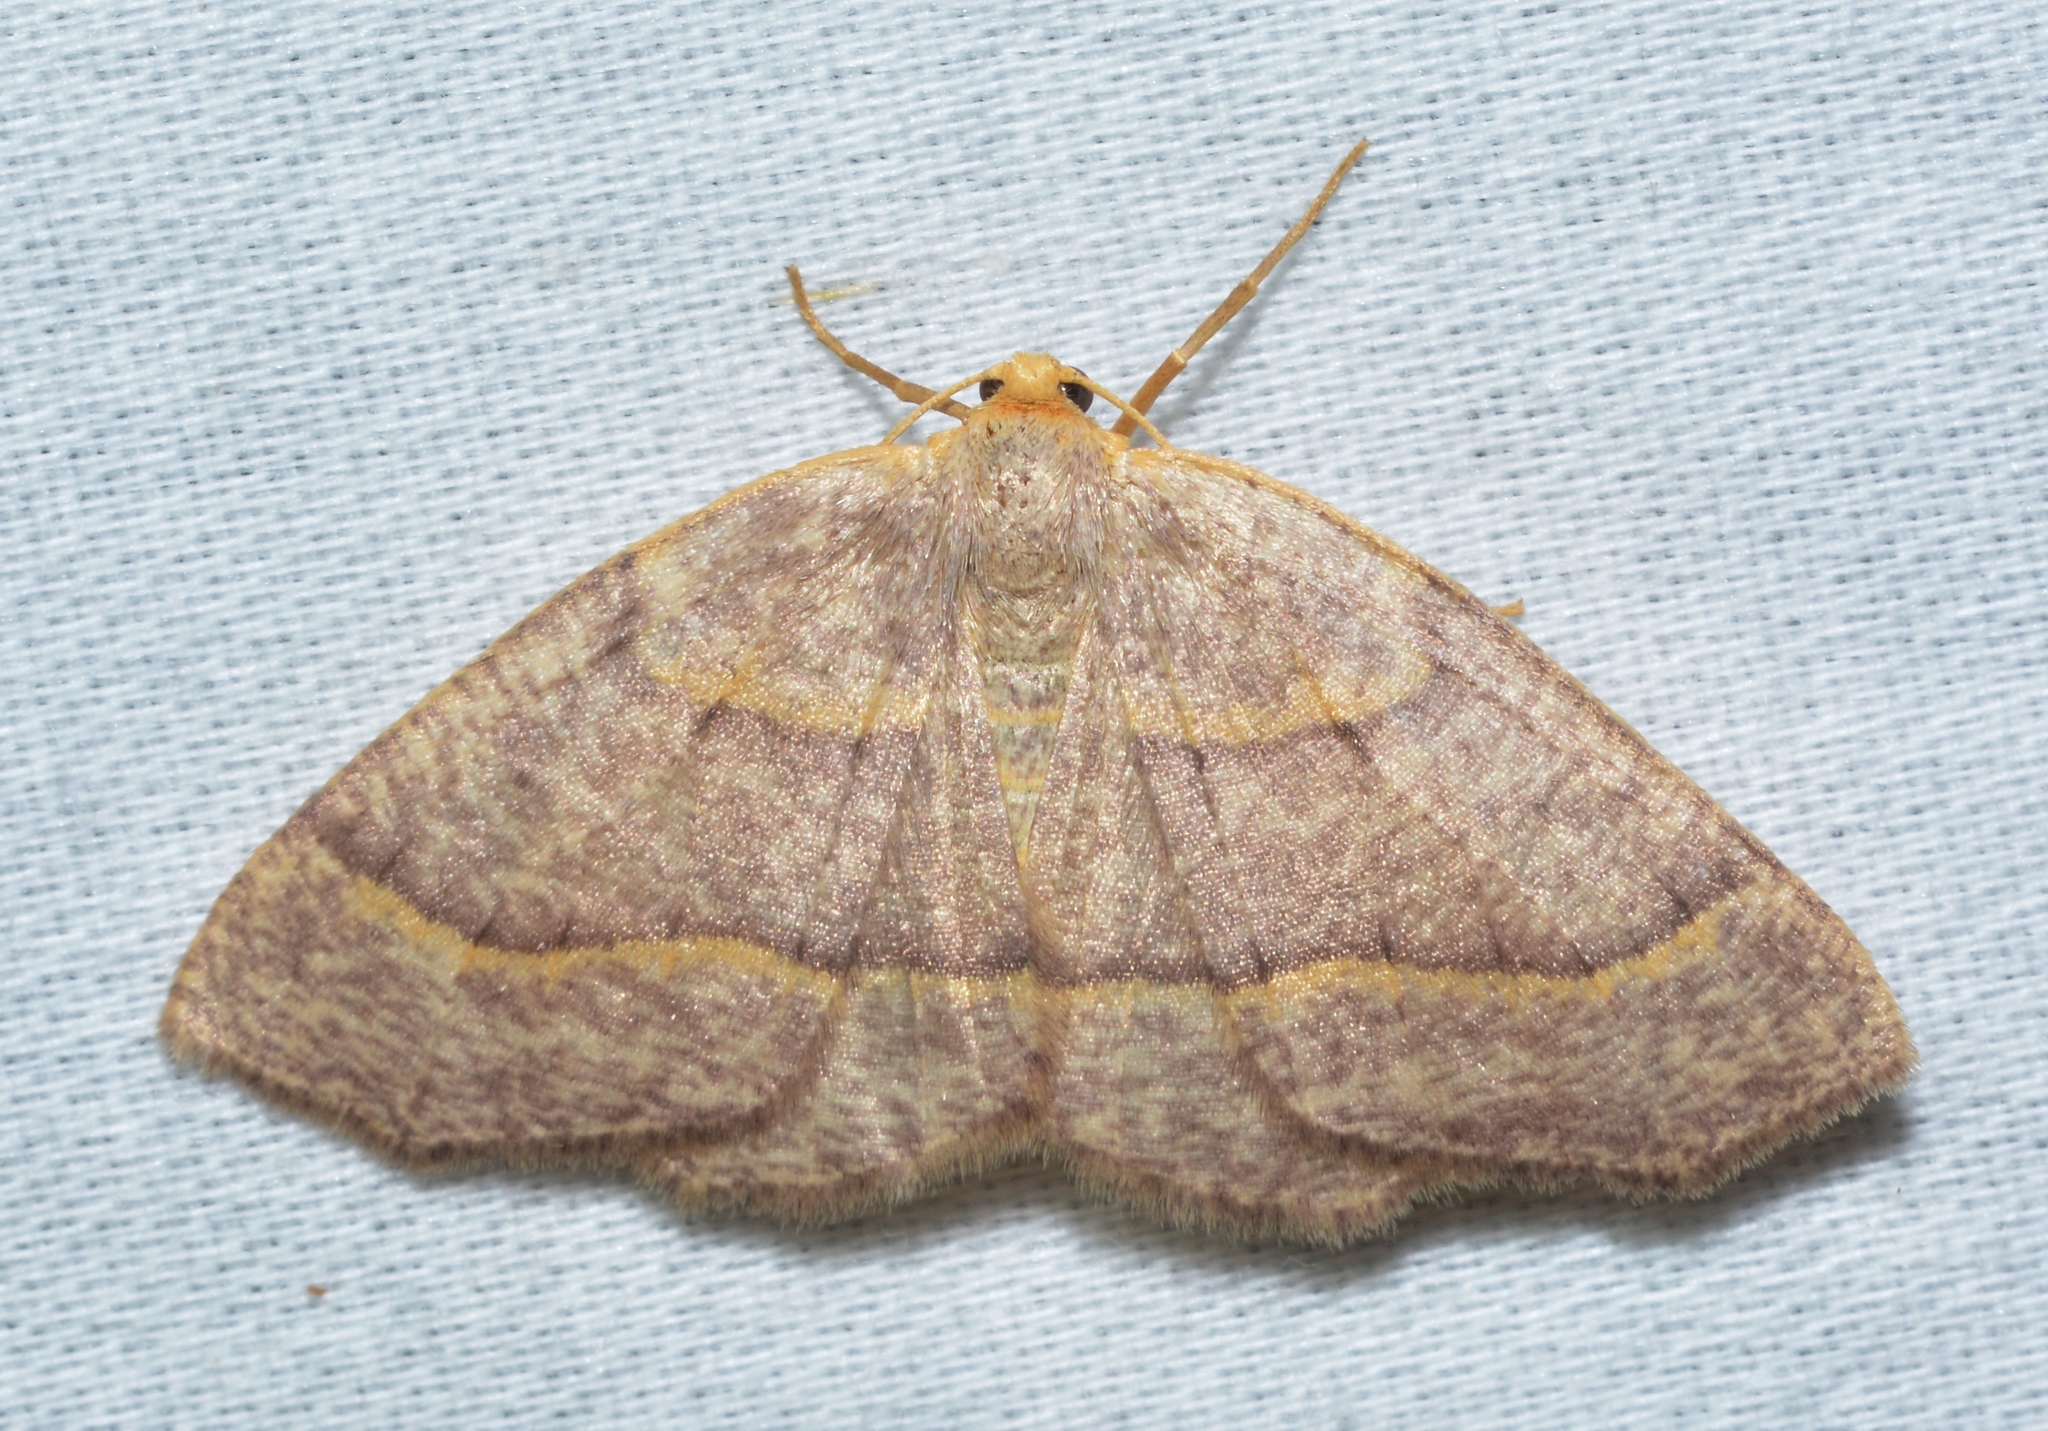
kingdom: Animalia
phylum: Arthropoda
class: Insecta
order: Lepidoptera
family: Geometridae
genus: Lambdina
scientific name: Lambdina fervidaria
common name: Curve-lined looper moth
